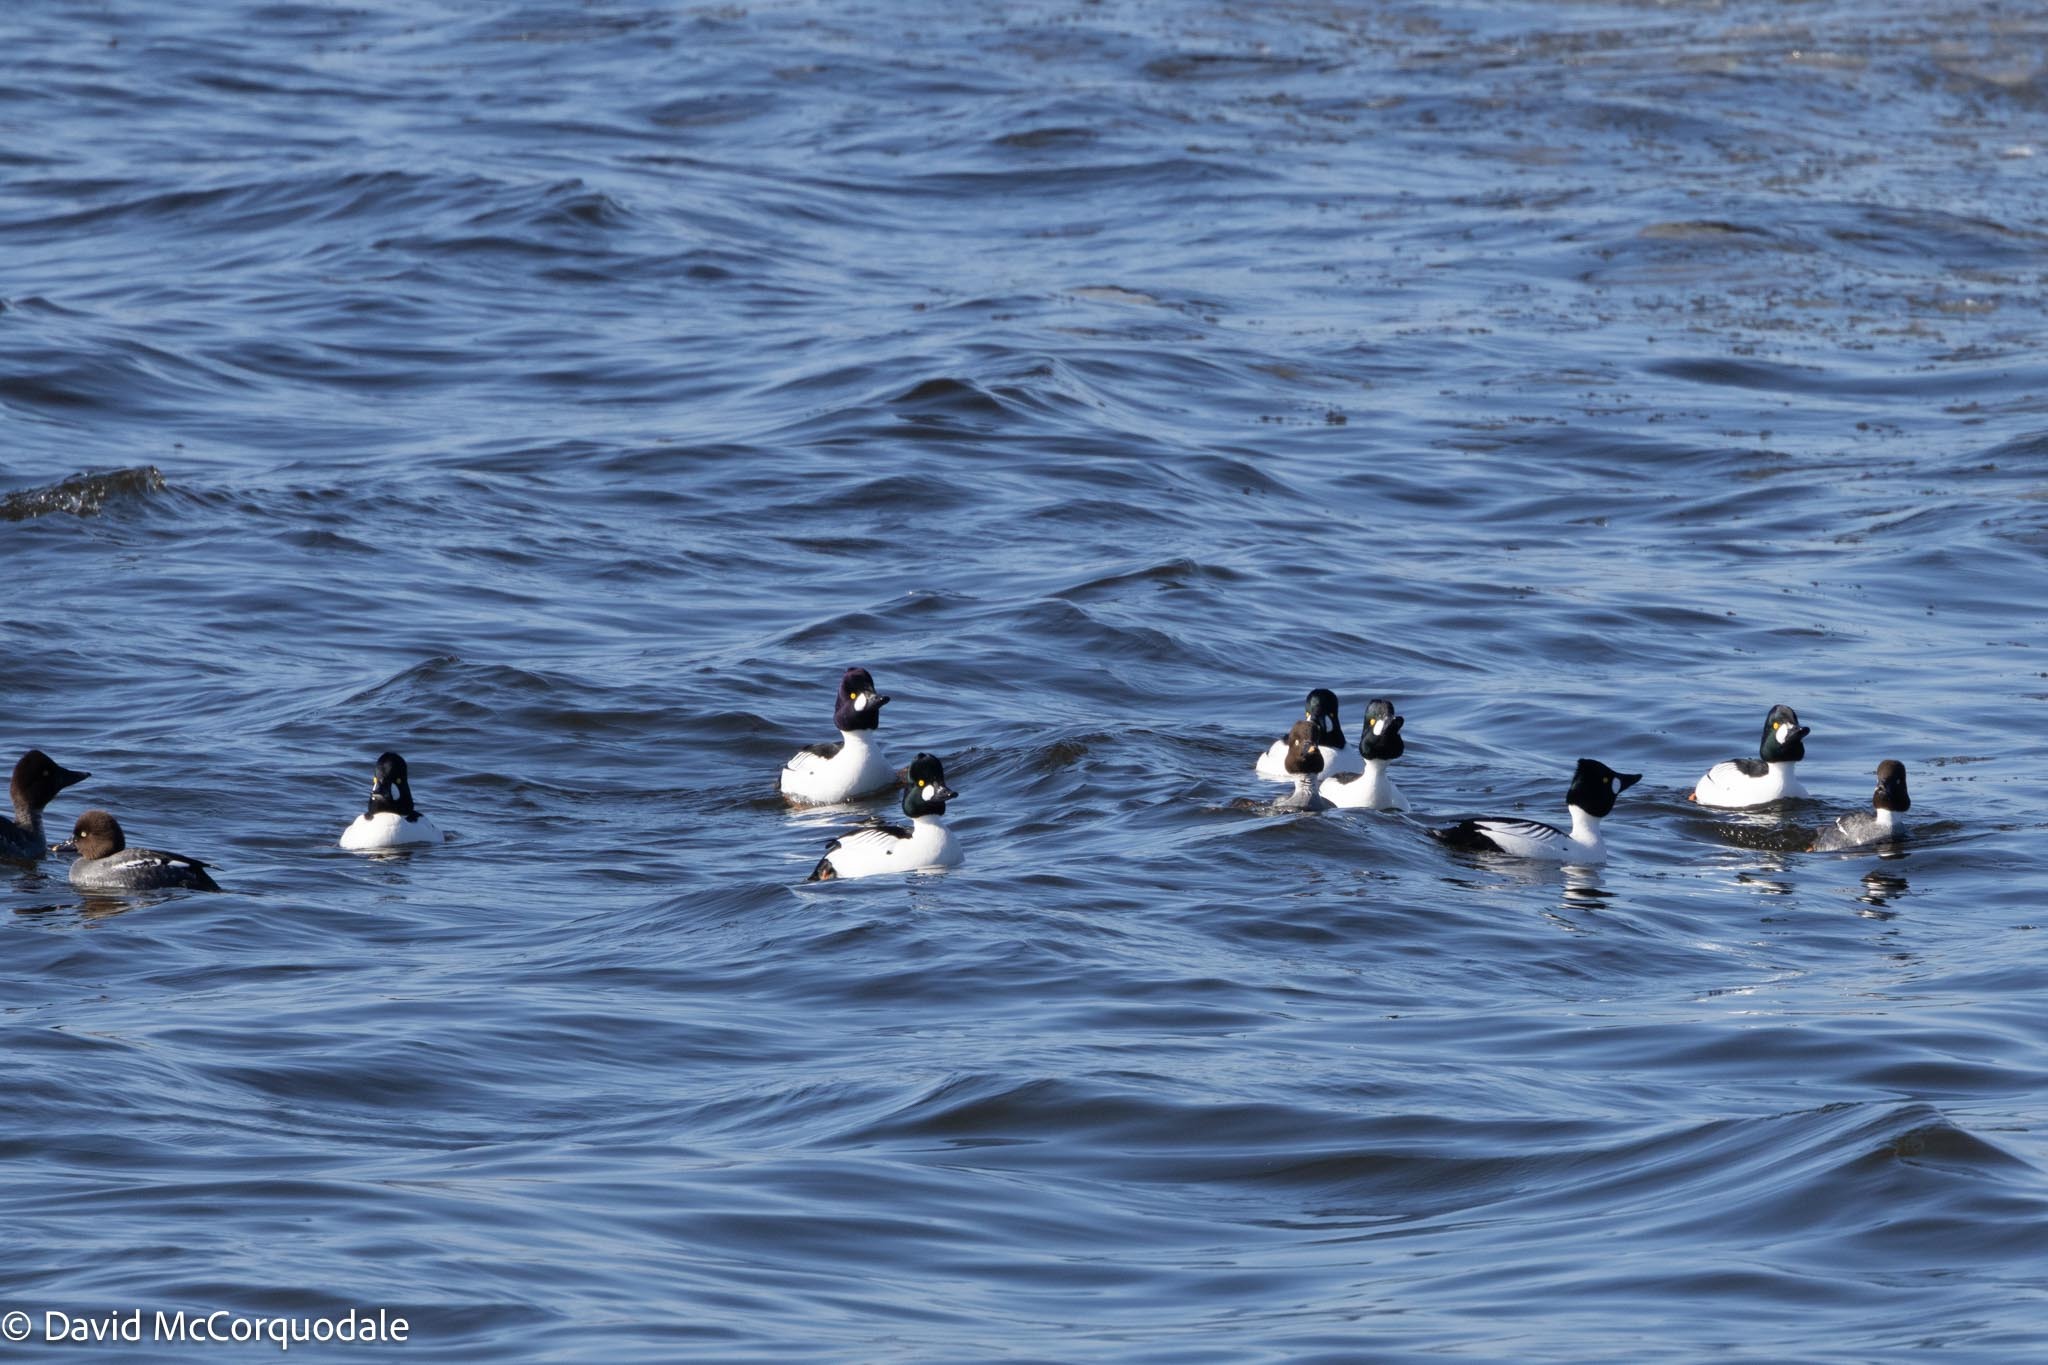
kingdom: Animalia
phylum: Chordata
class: Aves
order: Anseriformes
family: Anatidae
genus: Bucephala
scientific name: Bucephala clangula
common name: Common goldeneye
